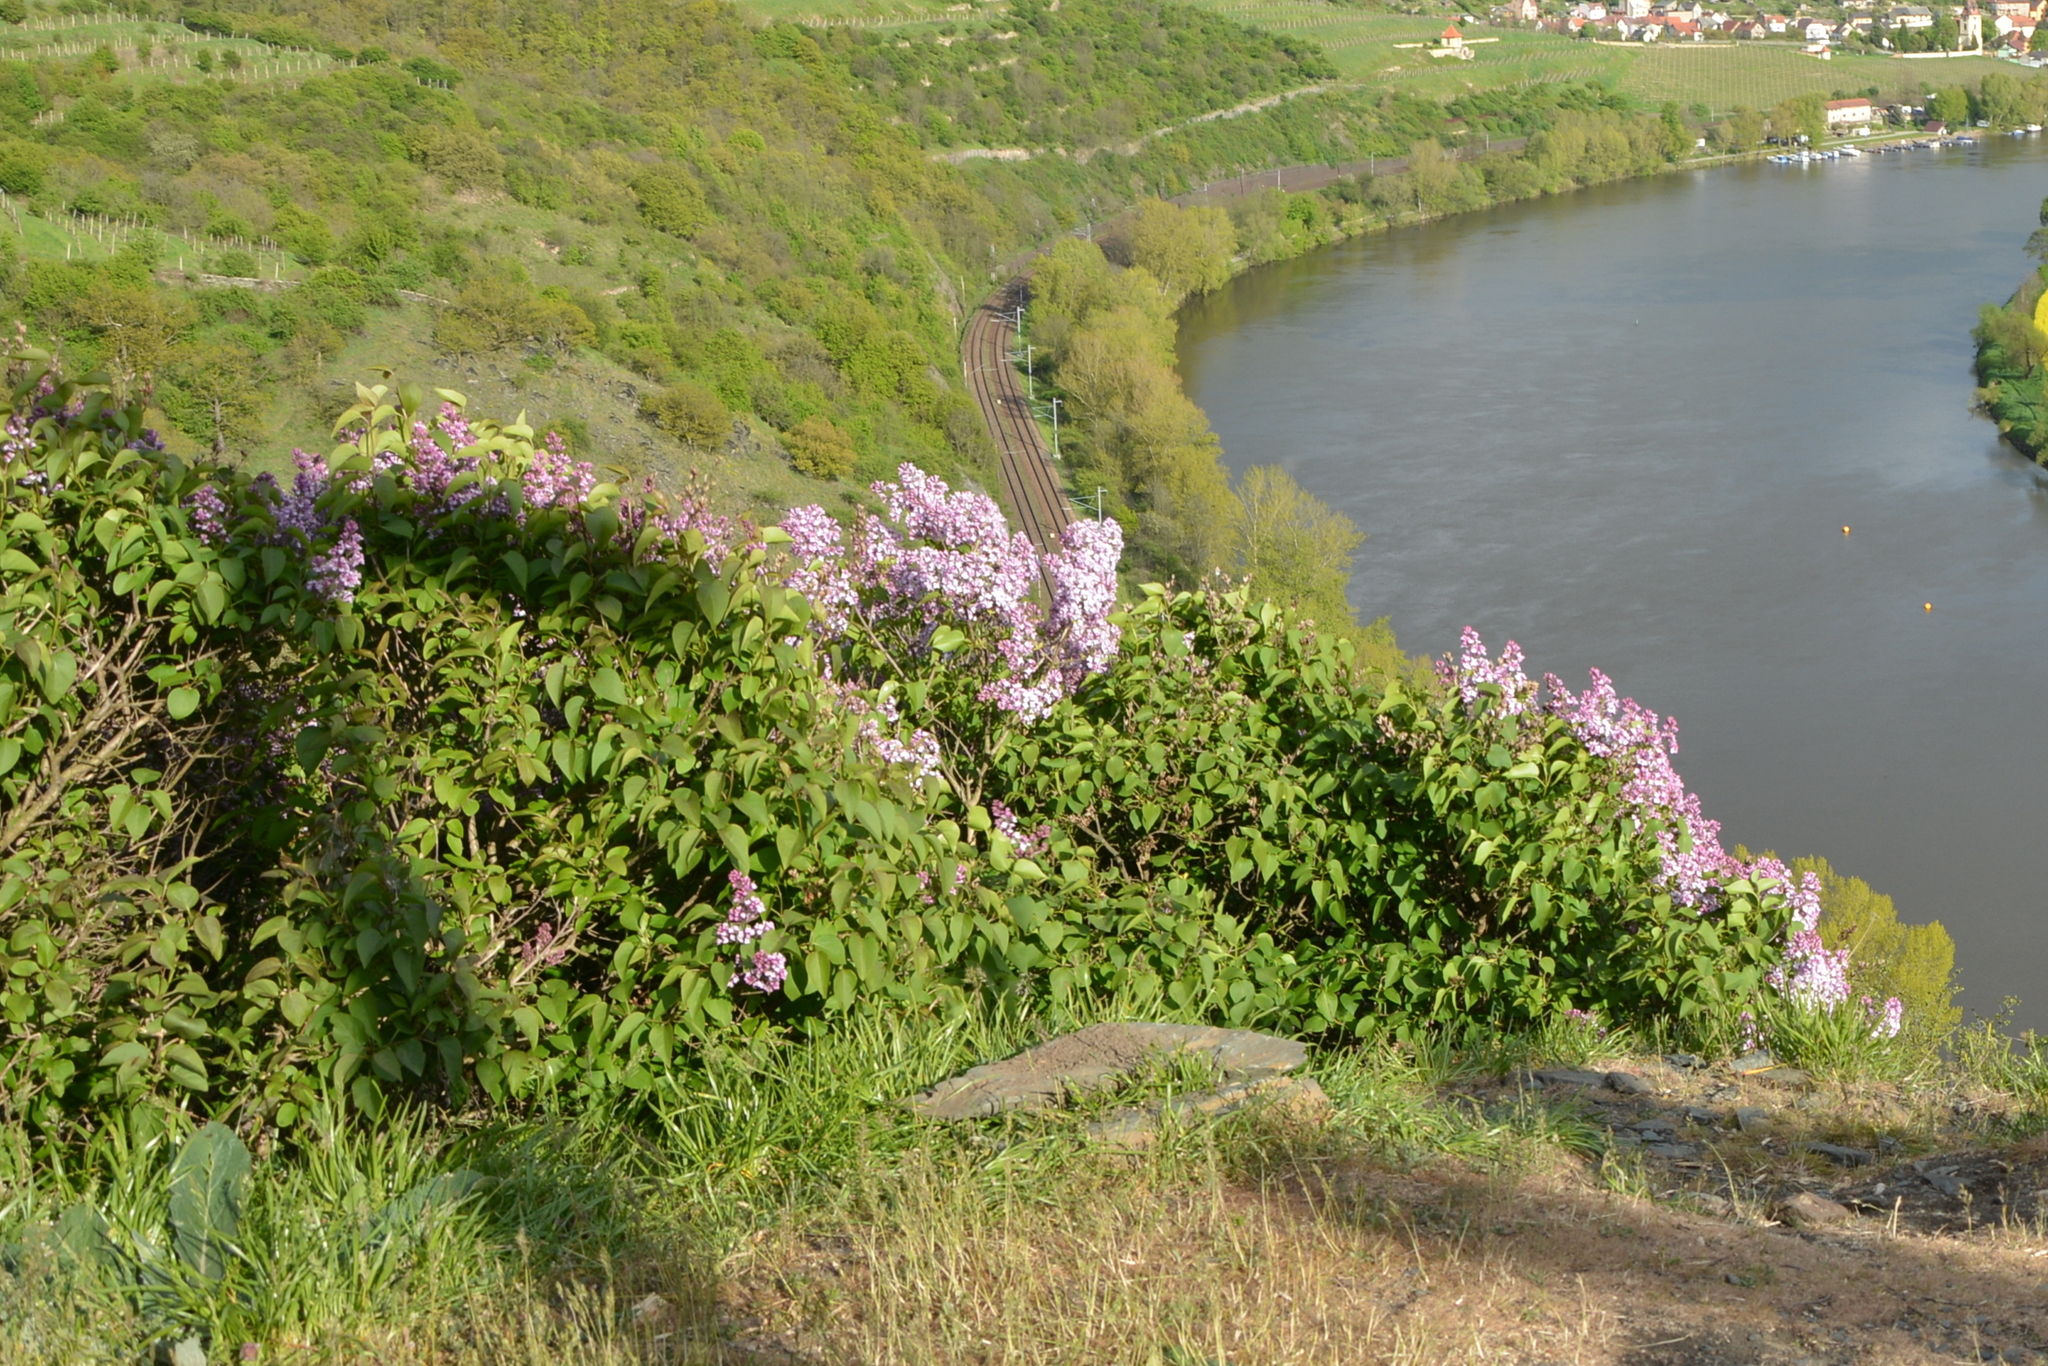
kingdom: Plantae
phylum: Tracheophyta
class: Magnoliopsida
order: Lamiales
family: Oleaceae
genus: Syringa
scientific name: Syringa vulgaris
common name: Common lilac
